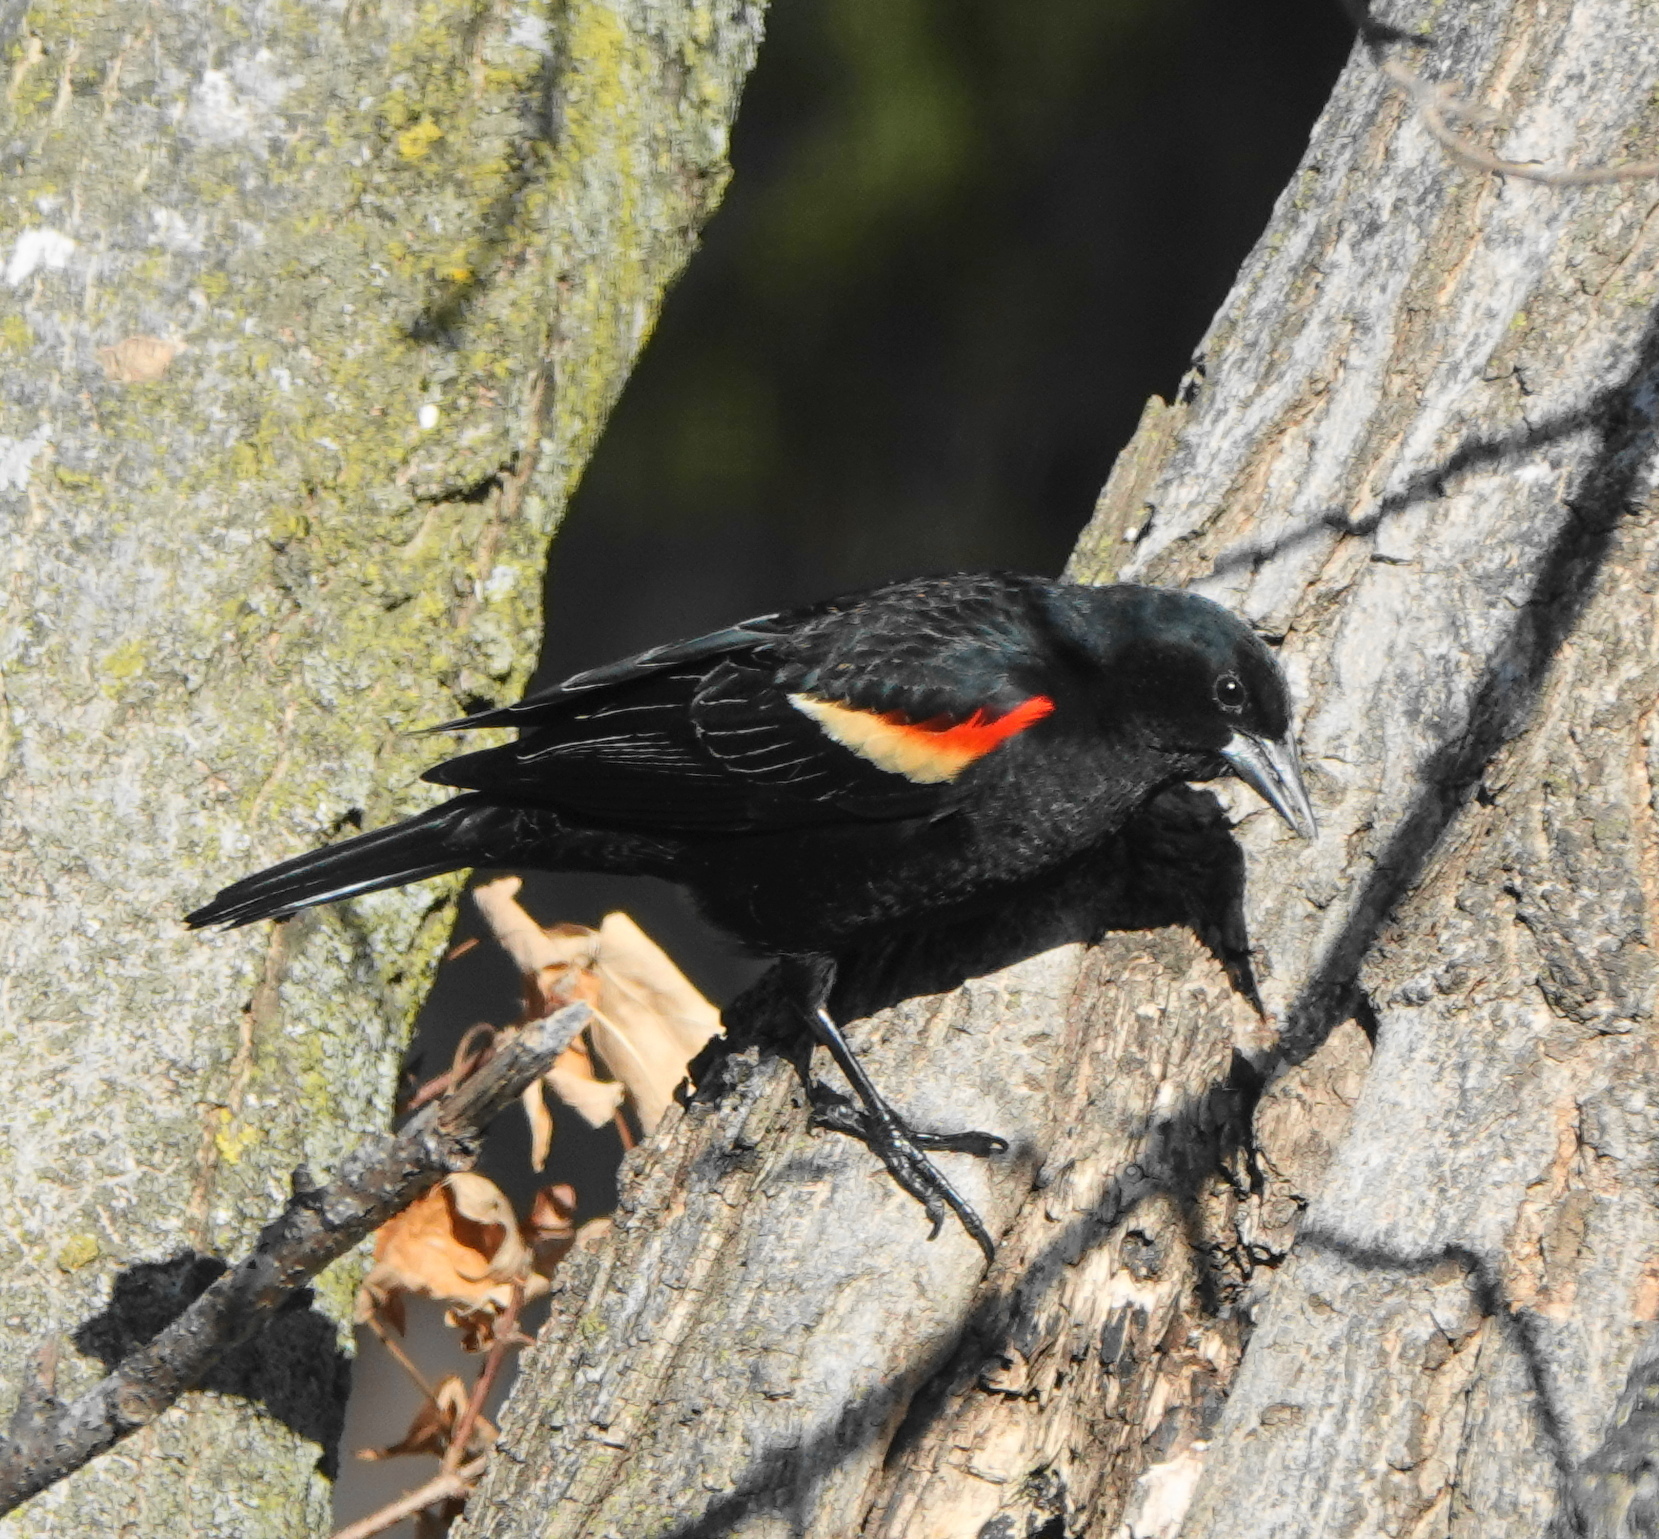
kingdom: Animalia
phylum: Chordata
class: Aves
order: Passeriformes
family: Icteridae
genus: Agelaius
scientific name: Agelaius phoeniceus
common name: Red-winged blackbird
